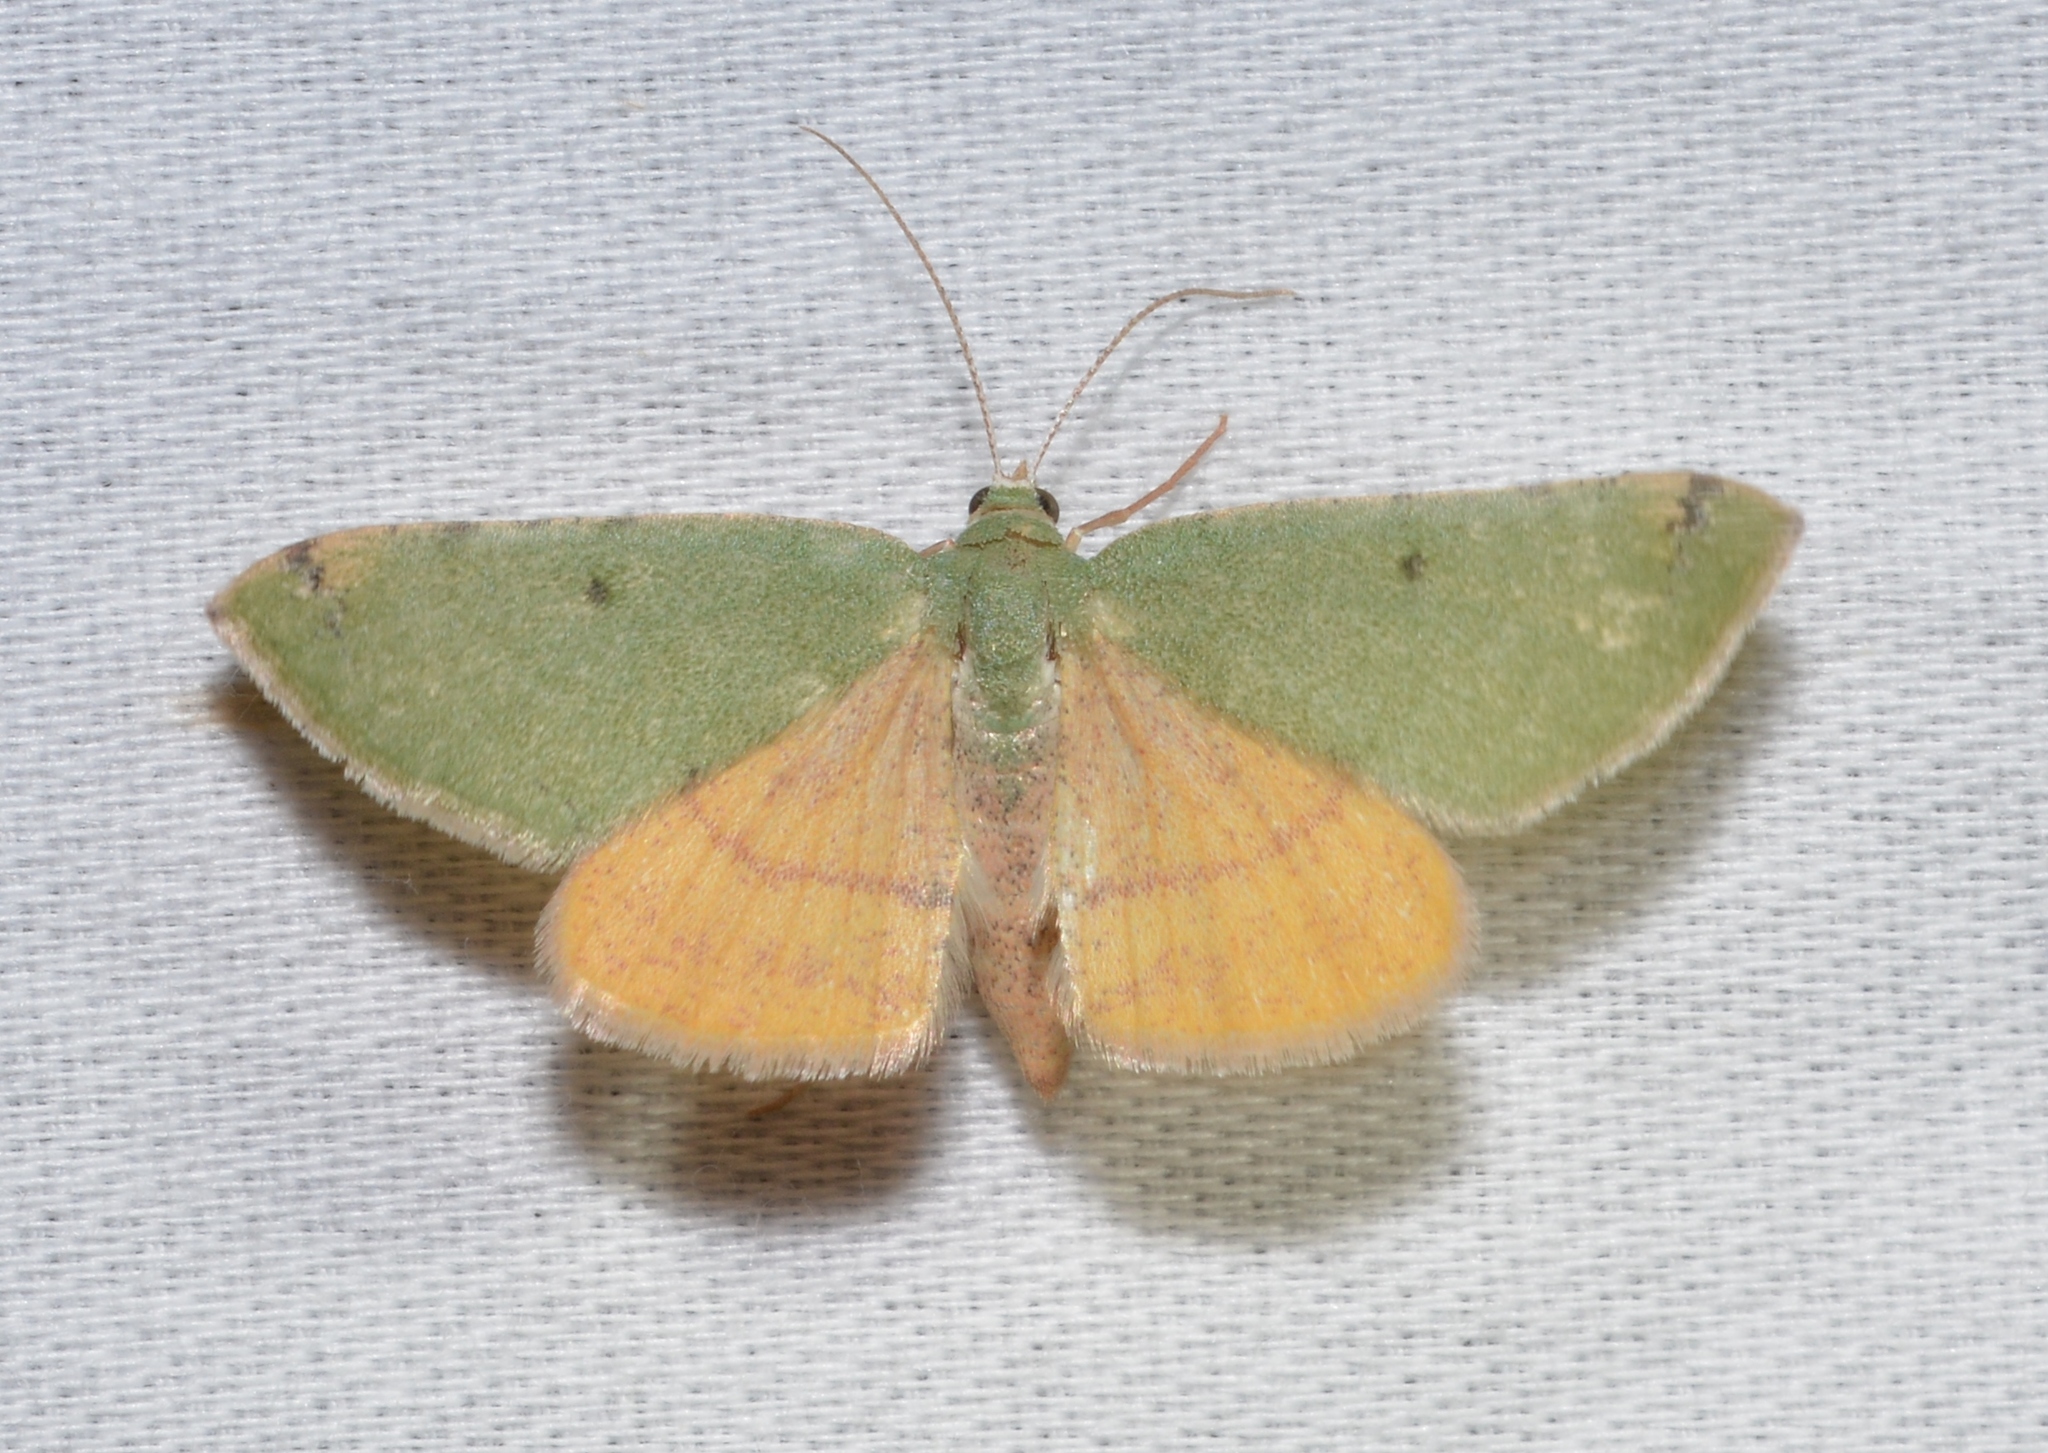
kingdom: Animalia
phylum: Arthropoda
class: Insecta
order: Lepidoptera
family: Geometridae
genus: Chloraspilates
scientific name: Chloraspilates bicoloraria
